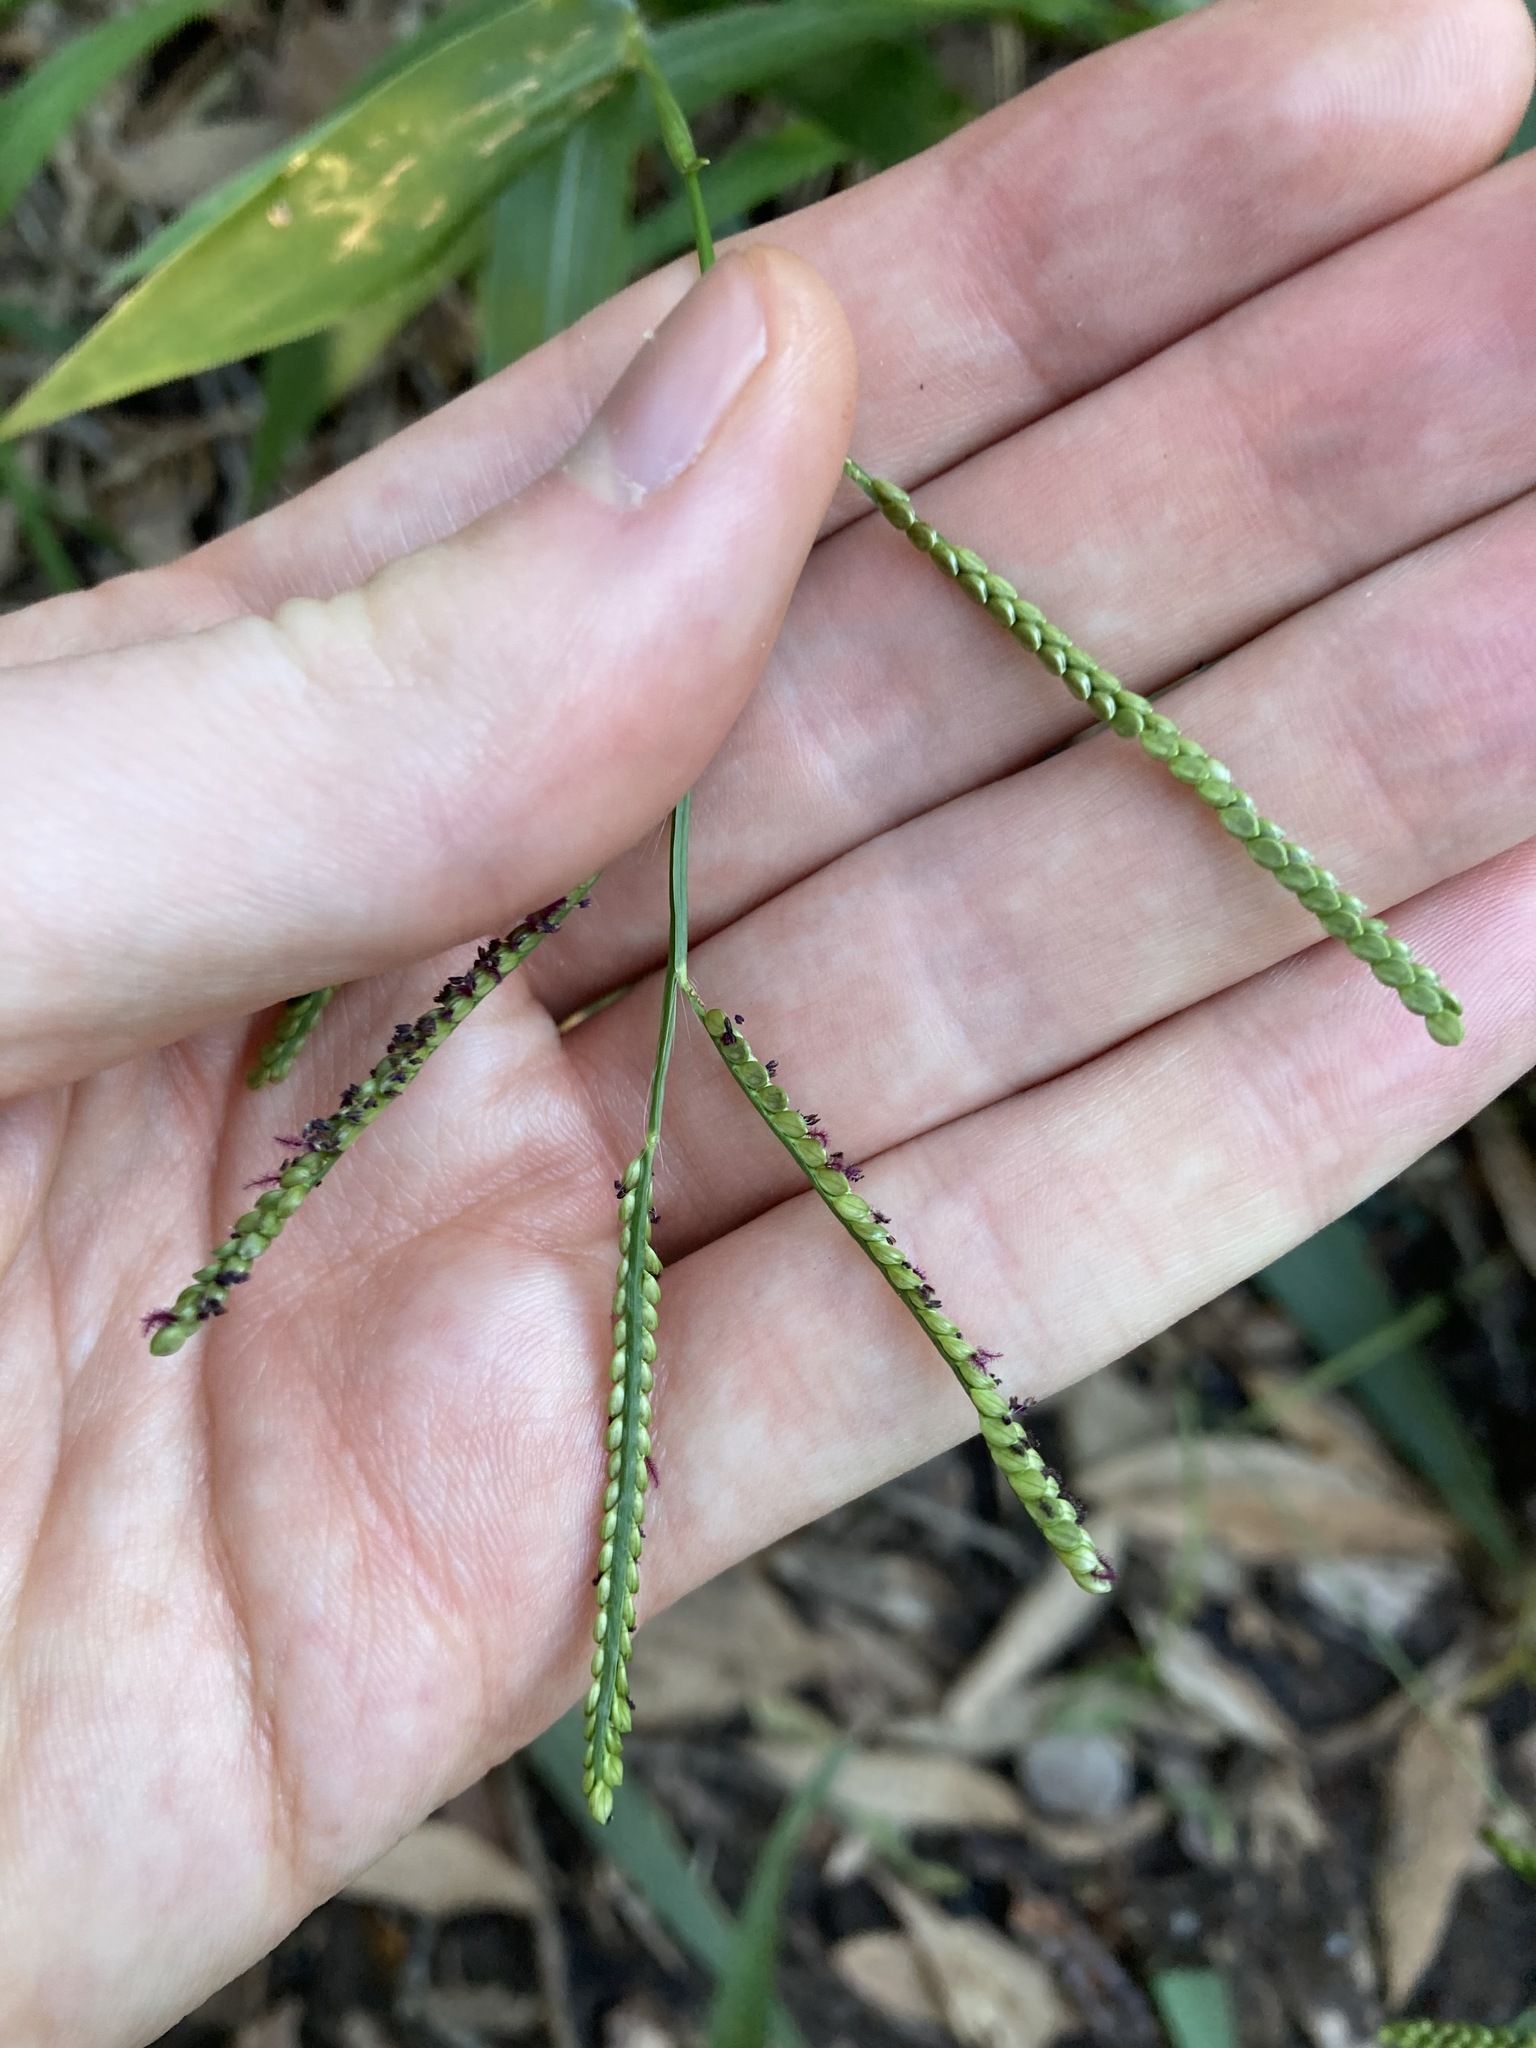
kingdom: Plantae
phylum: Tracheophyta
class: Liliopsida
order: Poales
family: Poaceae
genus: Paspalum
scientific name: Paspalum mandiocanum
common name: Paspalum
